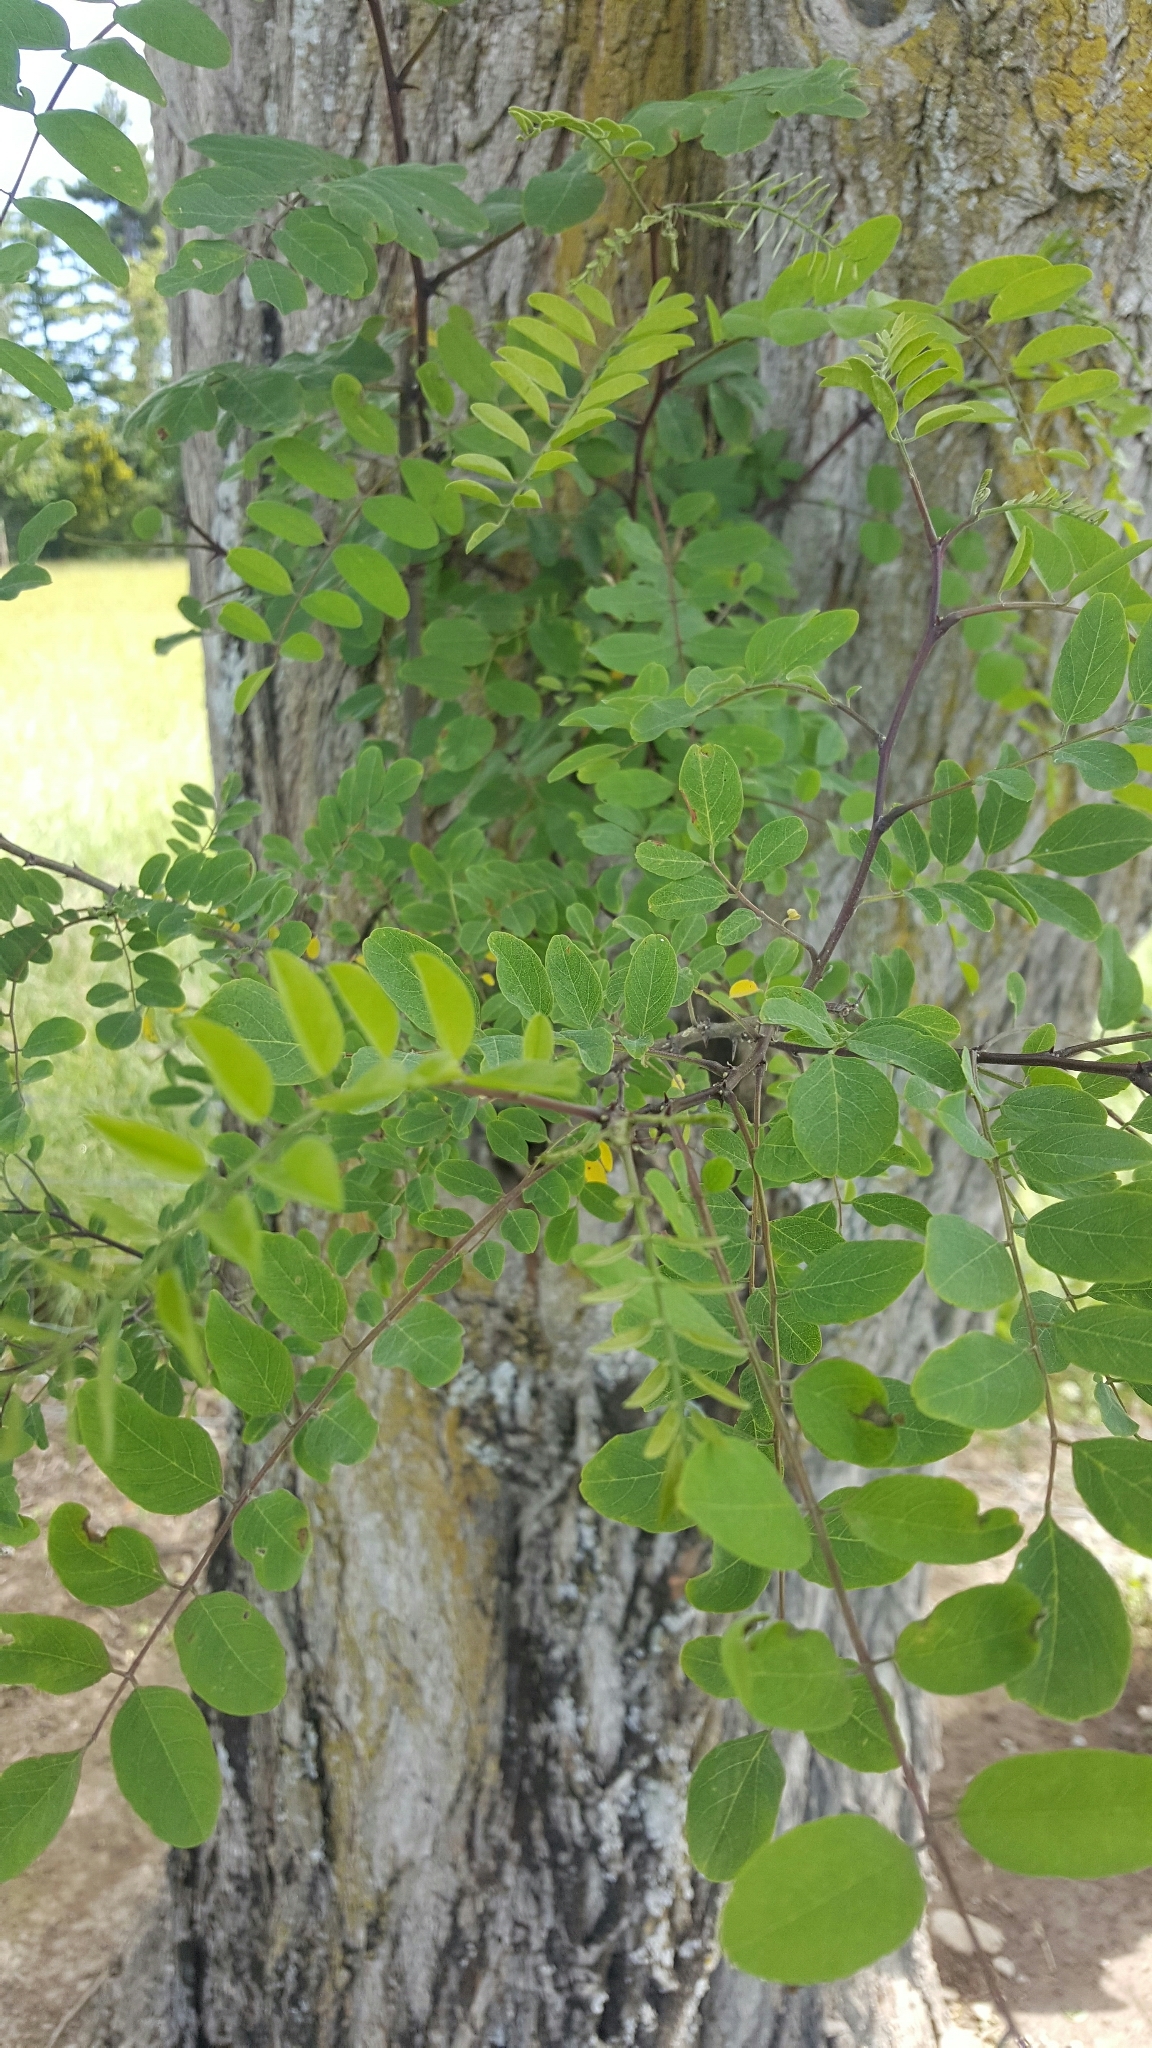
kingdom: Plantae
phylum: Tracheophyta
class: Magnoliopsida
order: Fabales
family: Fabaceae
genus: Robinia
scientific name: Robinia pseudoacacia
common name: Black locust
